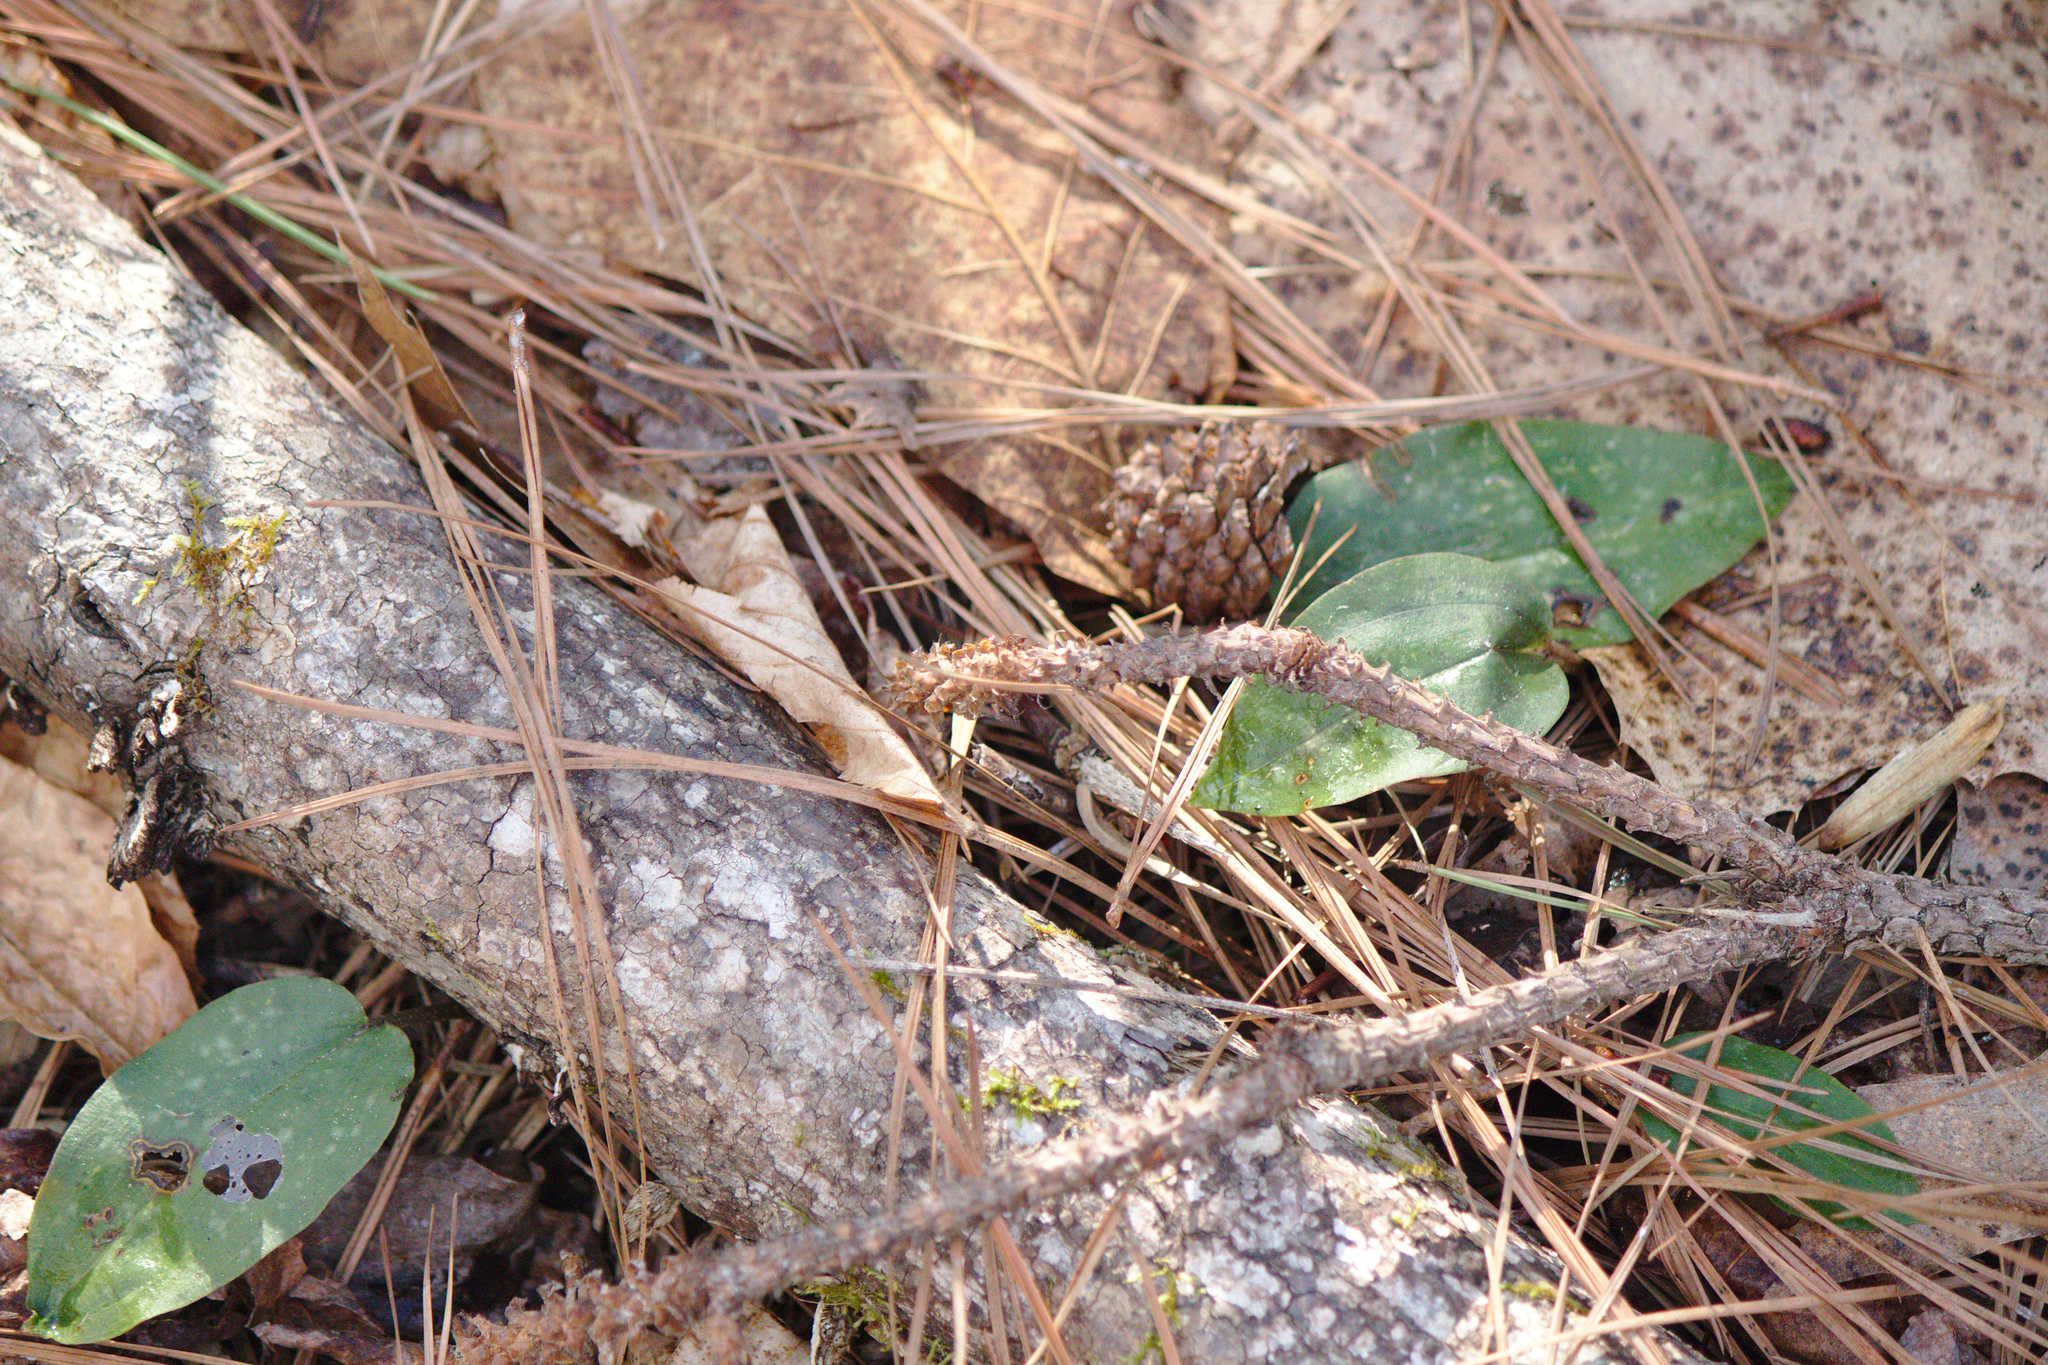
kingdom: Plantae
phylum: Tracheophyta
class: Liliopsida
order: Asparagales
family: Orchidaceae
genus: Tipularia
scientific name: Tipularia discolor
